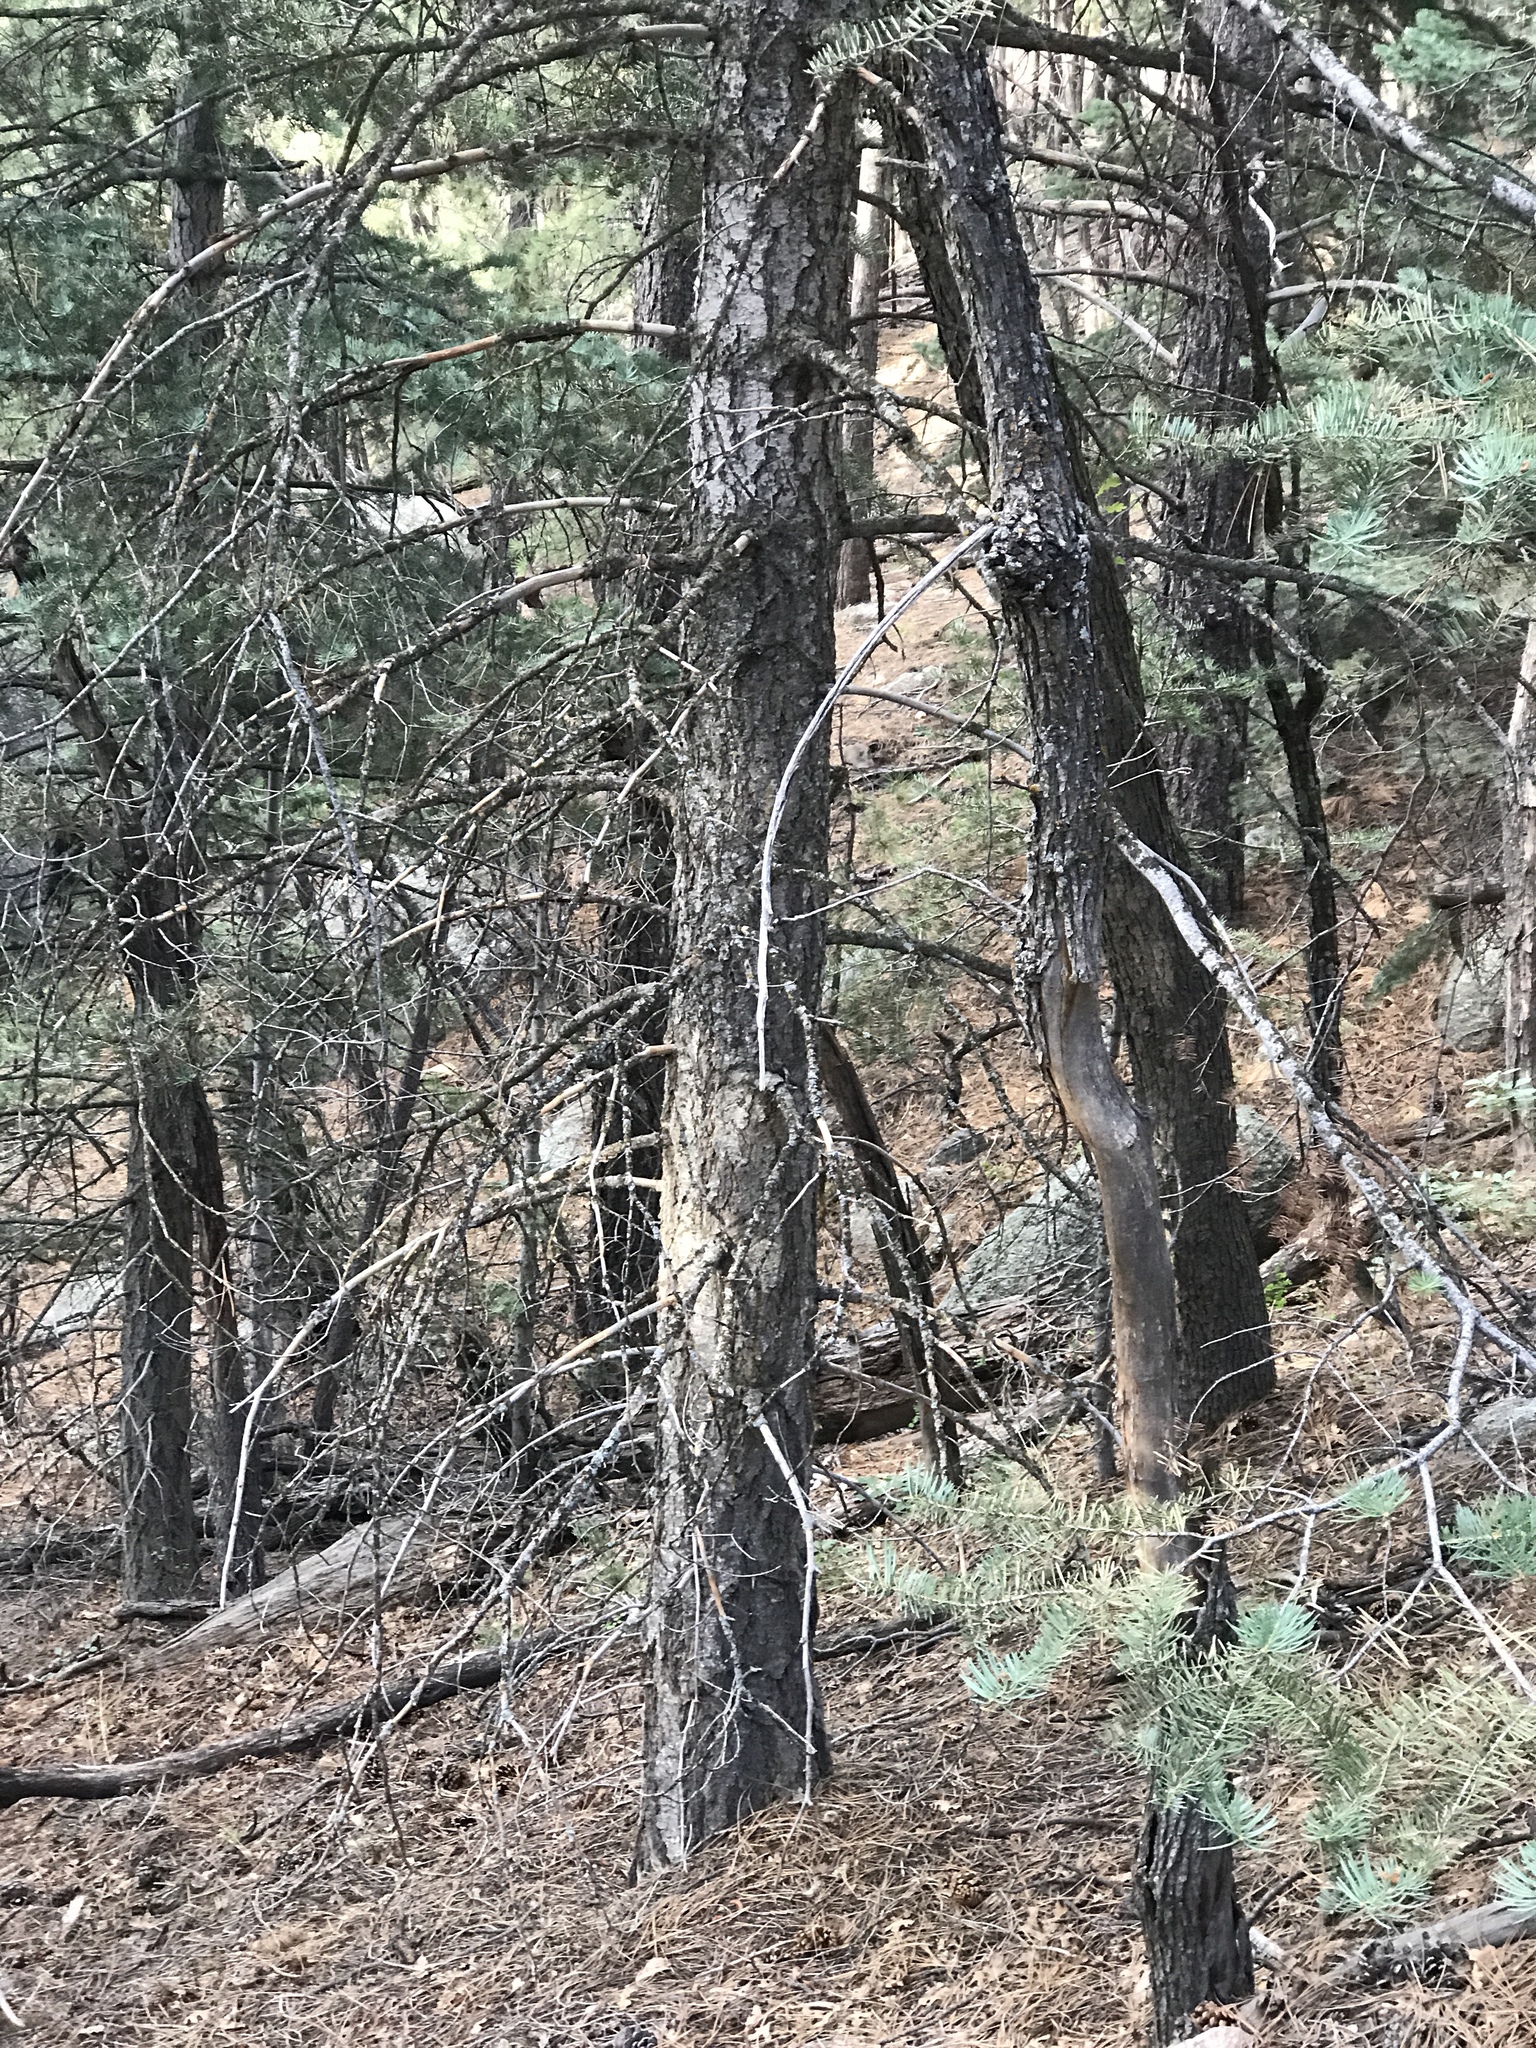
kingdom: Plantae
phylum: Tracheophyta
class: Pinopsida
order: Pinales
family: Pinaceae
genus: Abies
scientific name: Abies concolor
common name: Colorado fir
